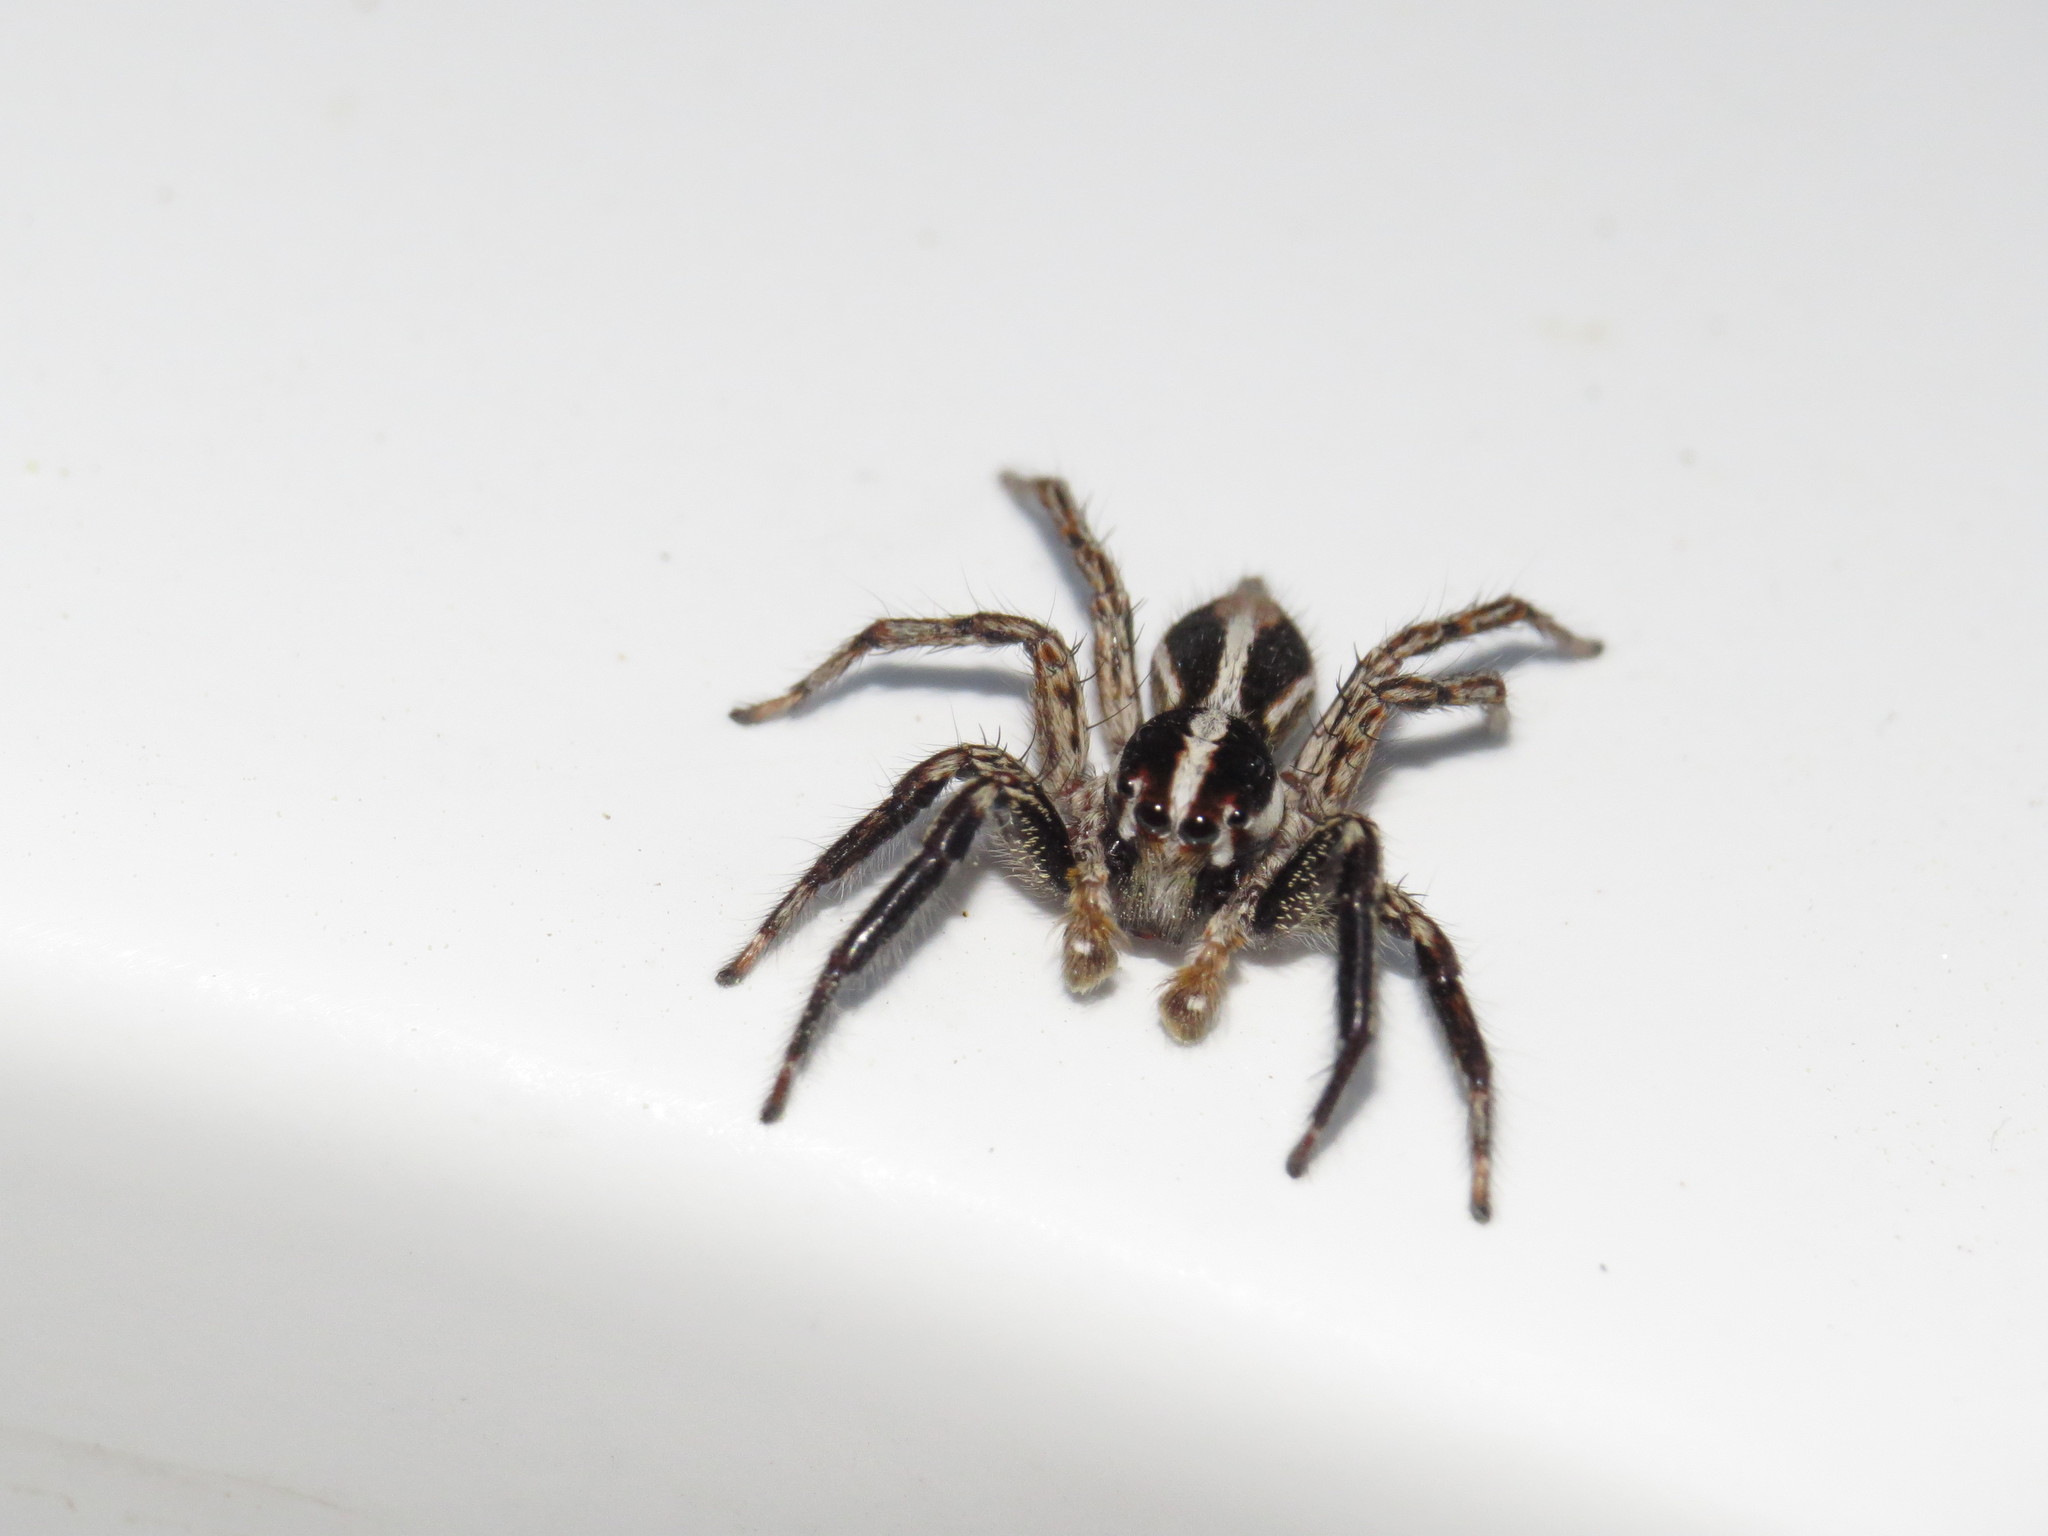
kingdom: Animalia
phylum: Arthropoda
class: Arachnida
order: Araneae
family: Salticidae
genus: Plexippus
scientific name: Plexippus paykulli
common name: Pantropical jumper
